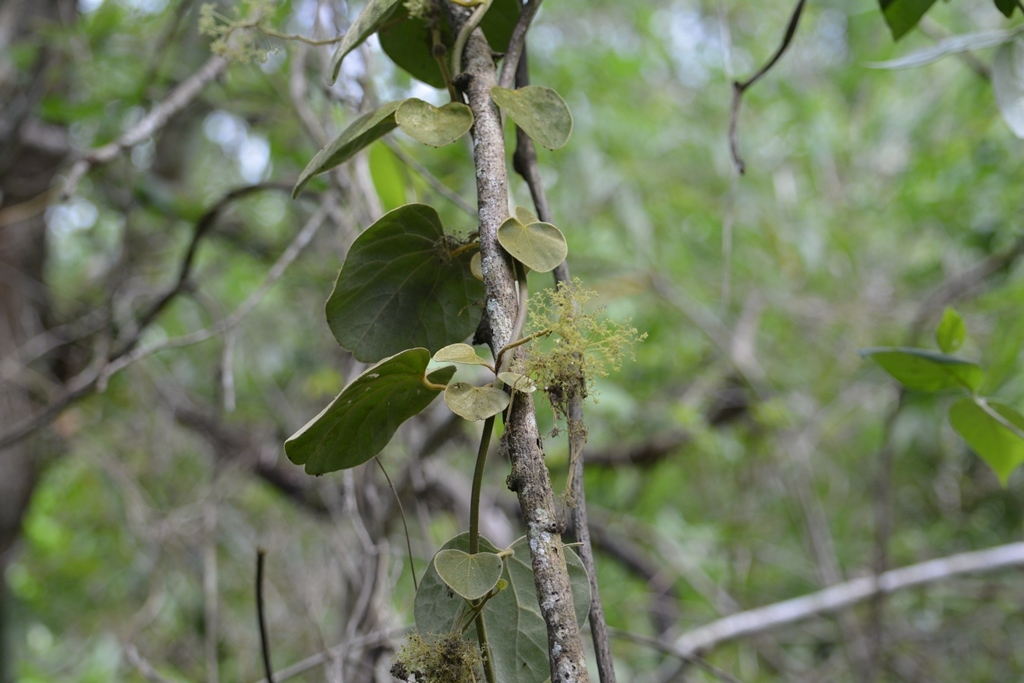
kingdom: Plantae
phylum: Tracheophyta
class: Magnoliopsida
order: Ranunculales
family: Menispermaceae
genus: Cissampelos
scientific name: Cissampelos pareira
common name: Velvetleaf
